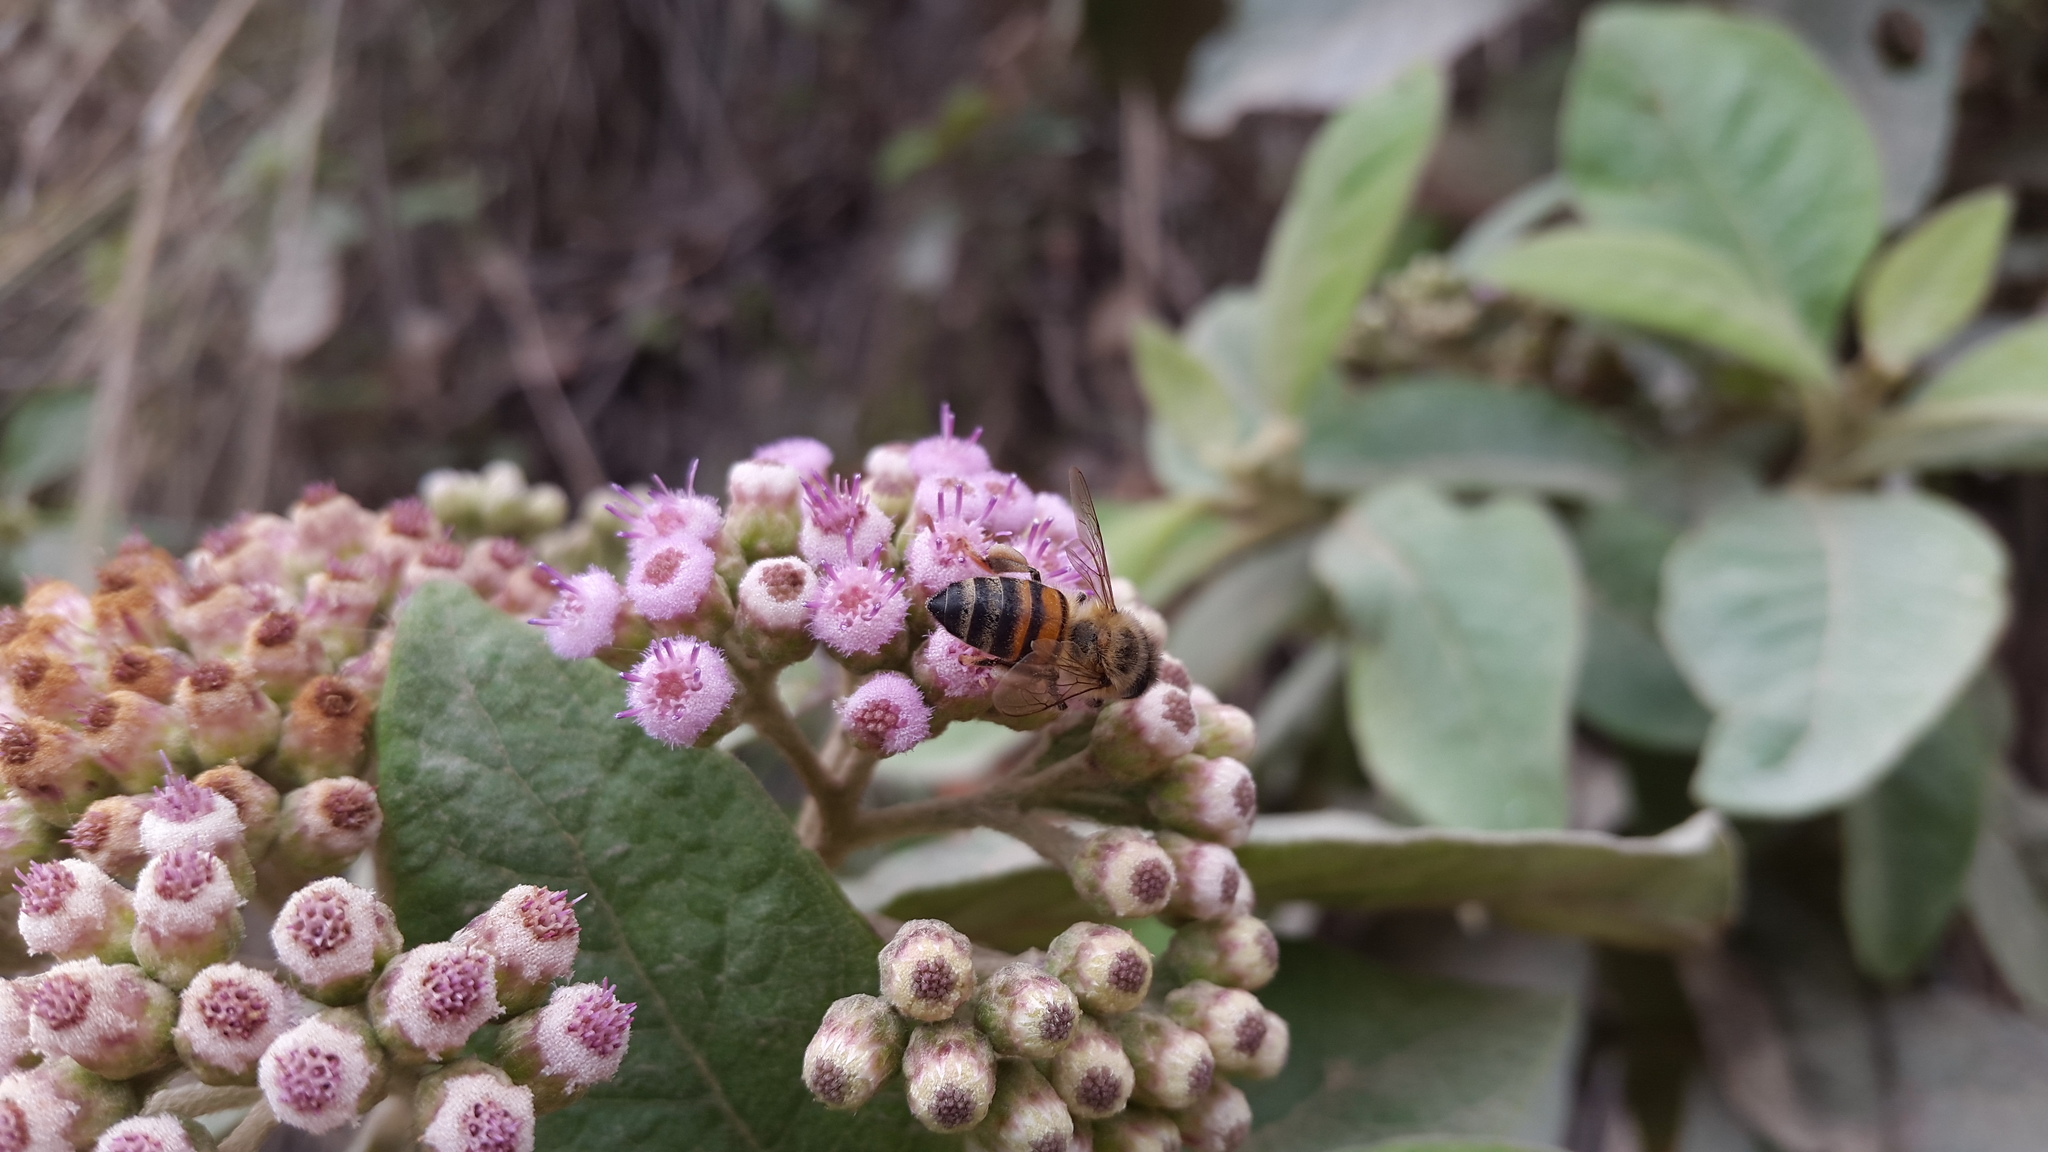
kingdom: Animalia
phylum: Arthropoda
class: Insecta
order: Hymenoptera
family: Apidae
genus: Apis
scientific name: Apis mellifera
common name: Honey bee
